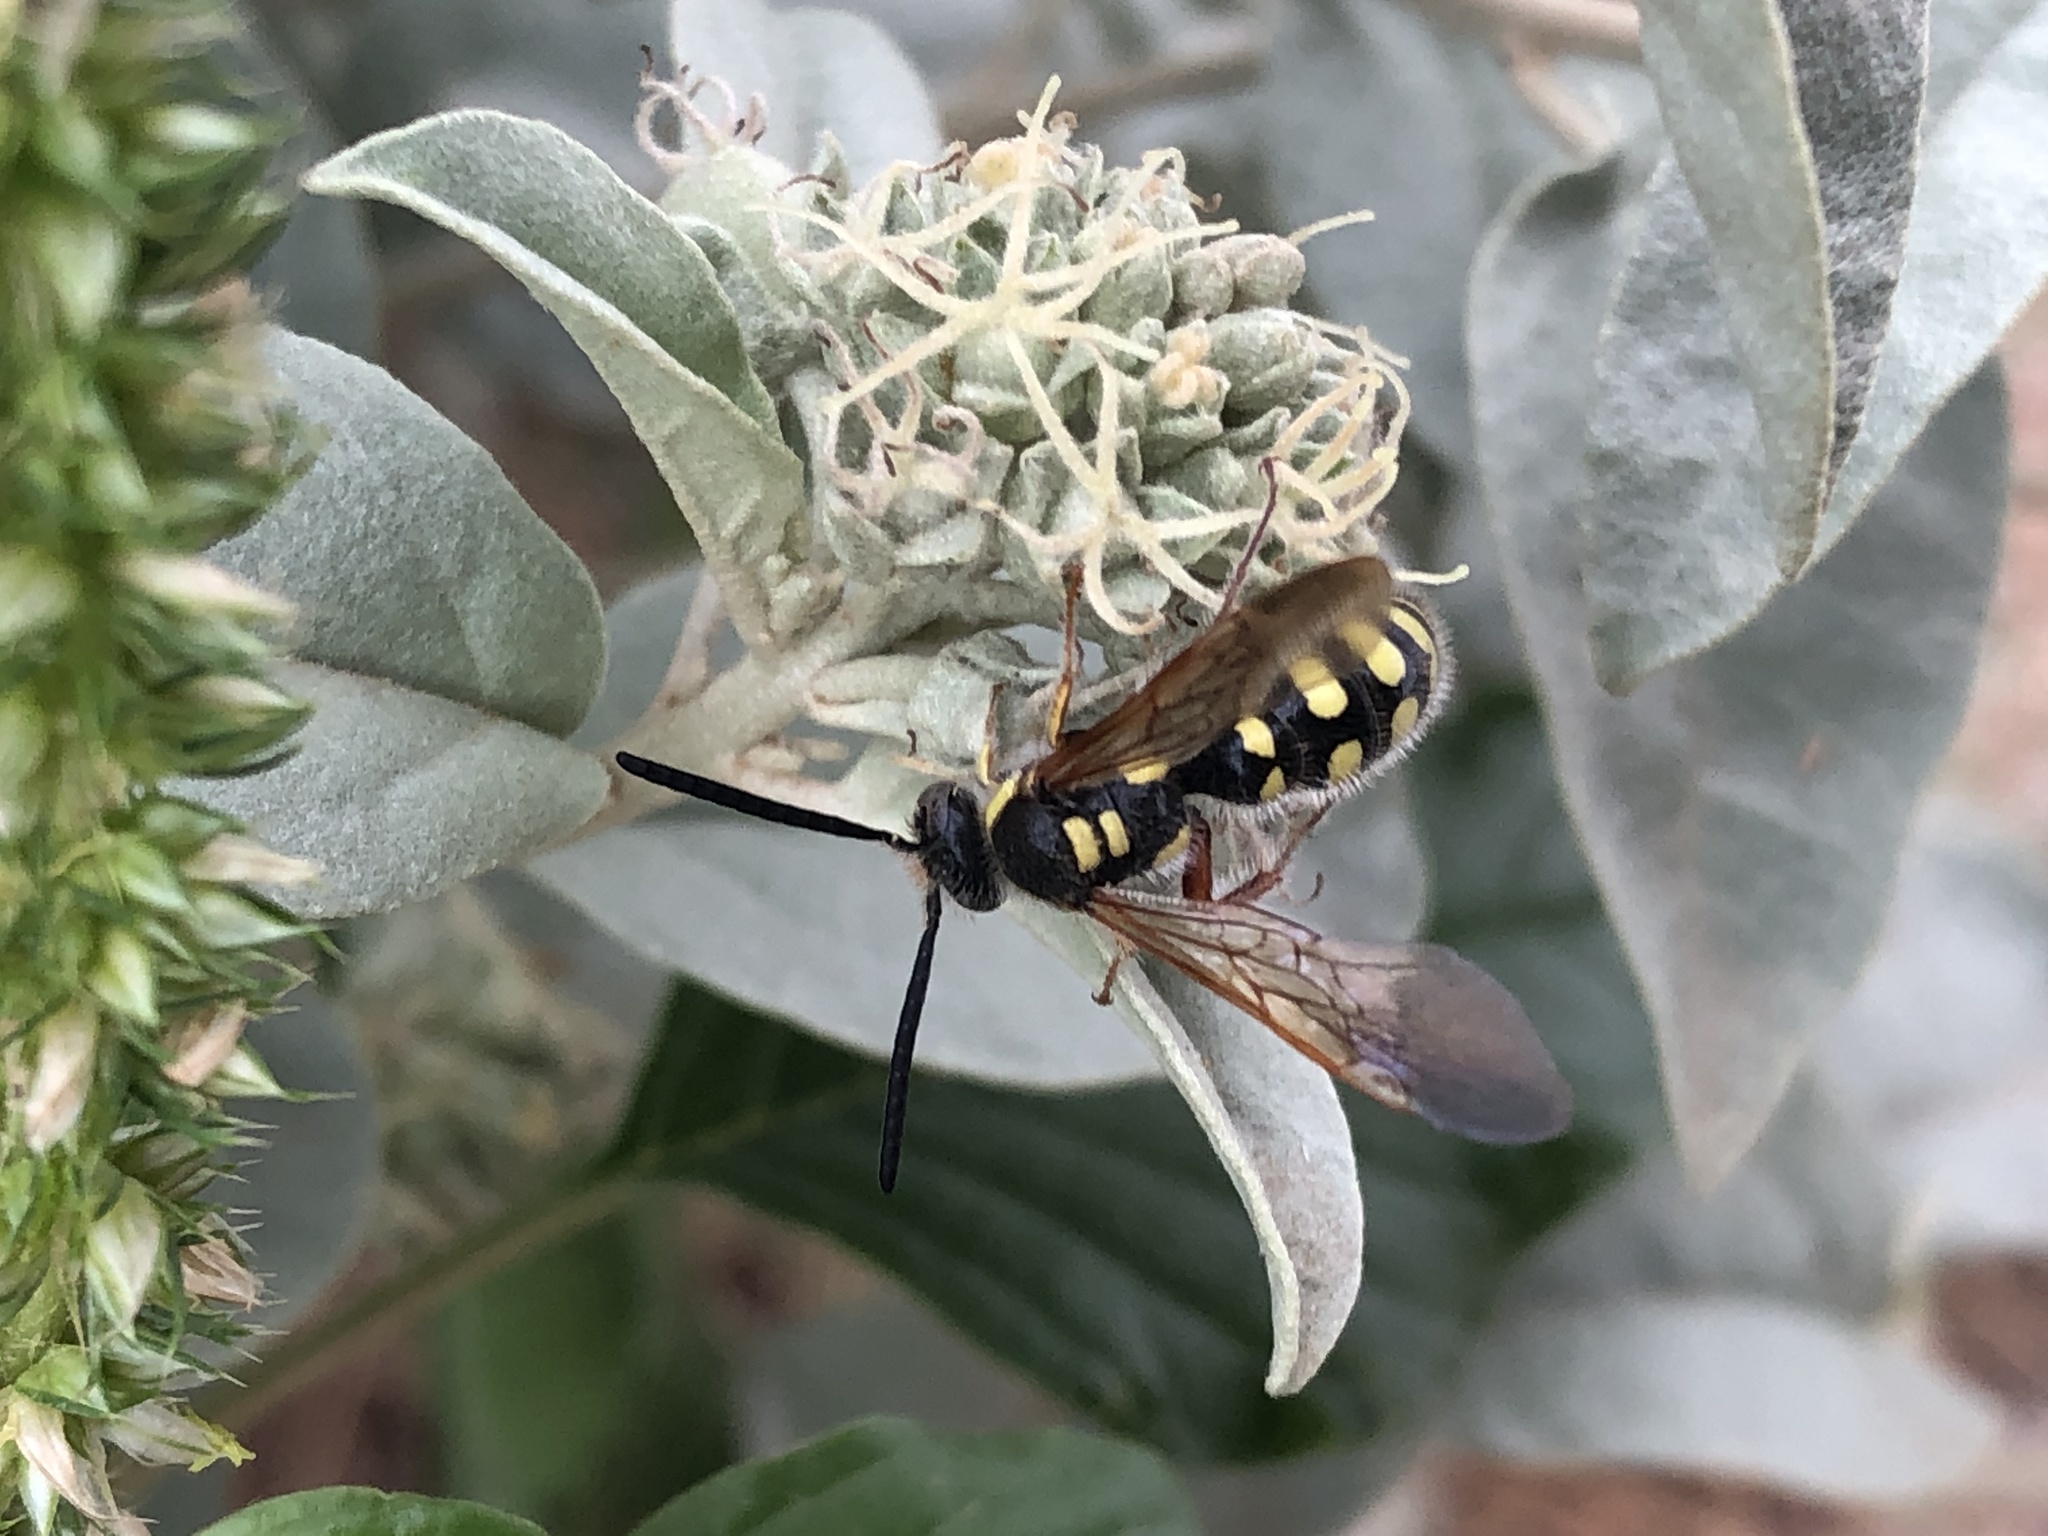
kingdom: Animalia
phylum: Arthropoda
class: Insecta
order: Hymenoptera
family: Scoliidae
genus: Colpa
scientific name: Colpa octomaculata
